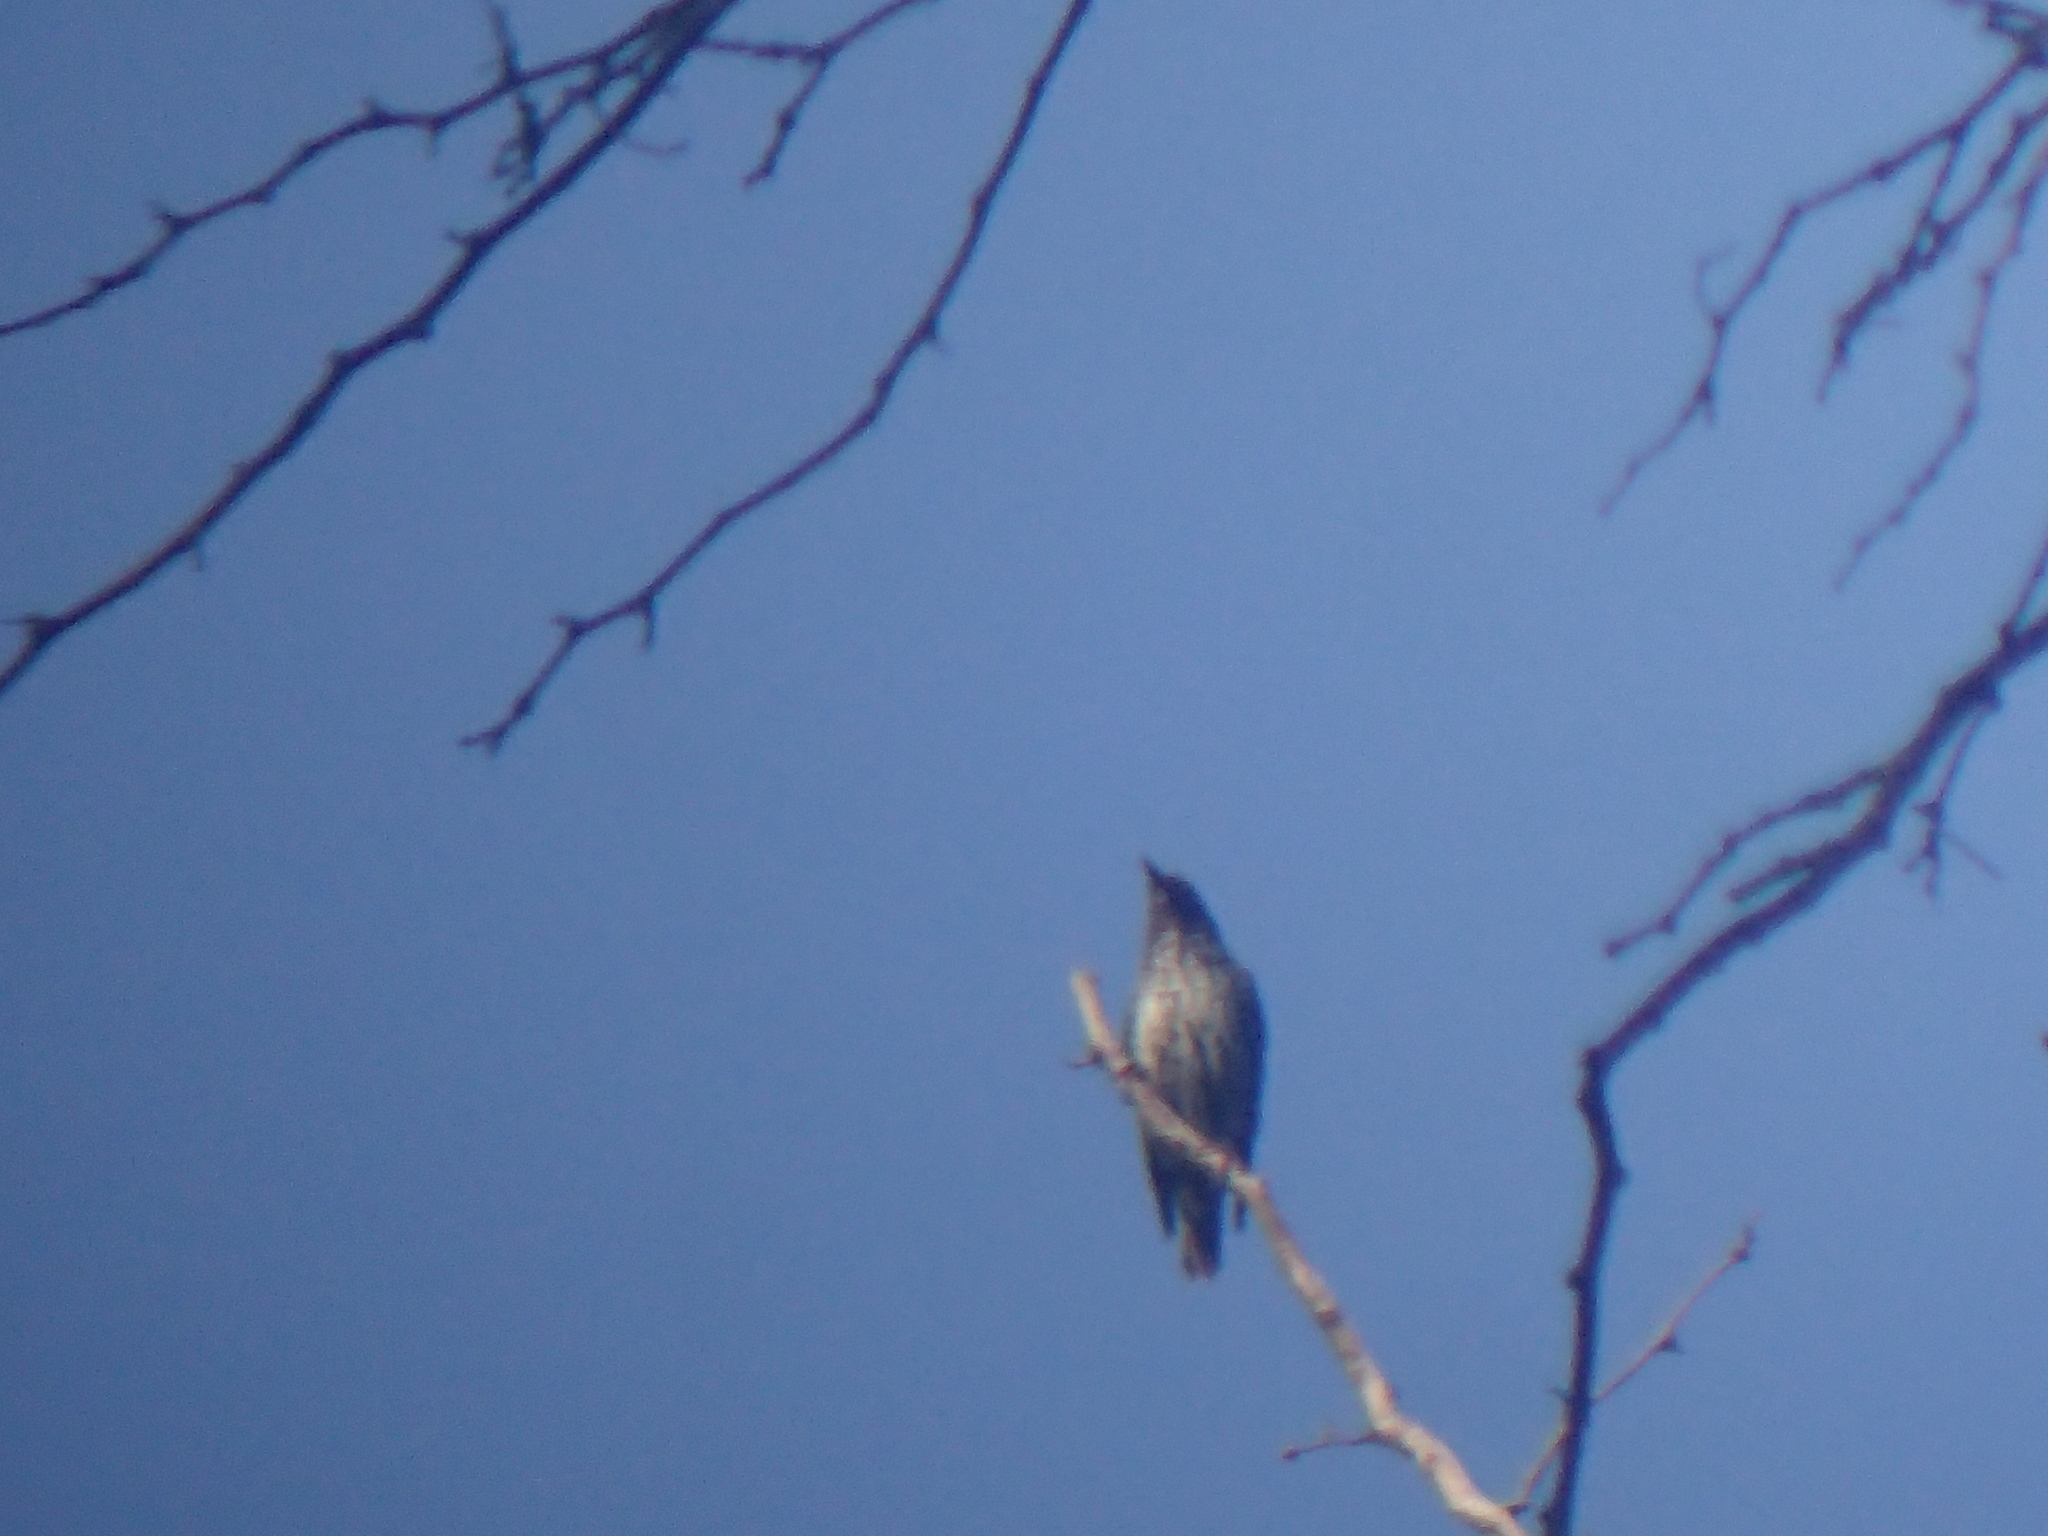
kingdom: Animalia
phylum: Chordata
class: Aves
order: Passeriformes
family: Sturnidae
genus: Sturnus
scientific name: Sturnus vulgaris
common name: Common starling
